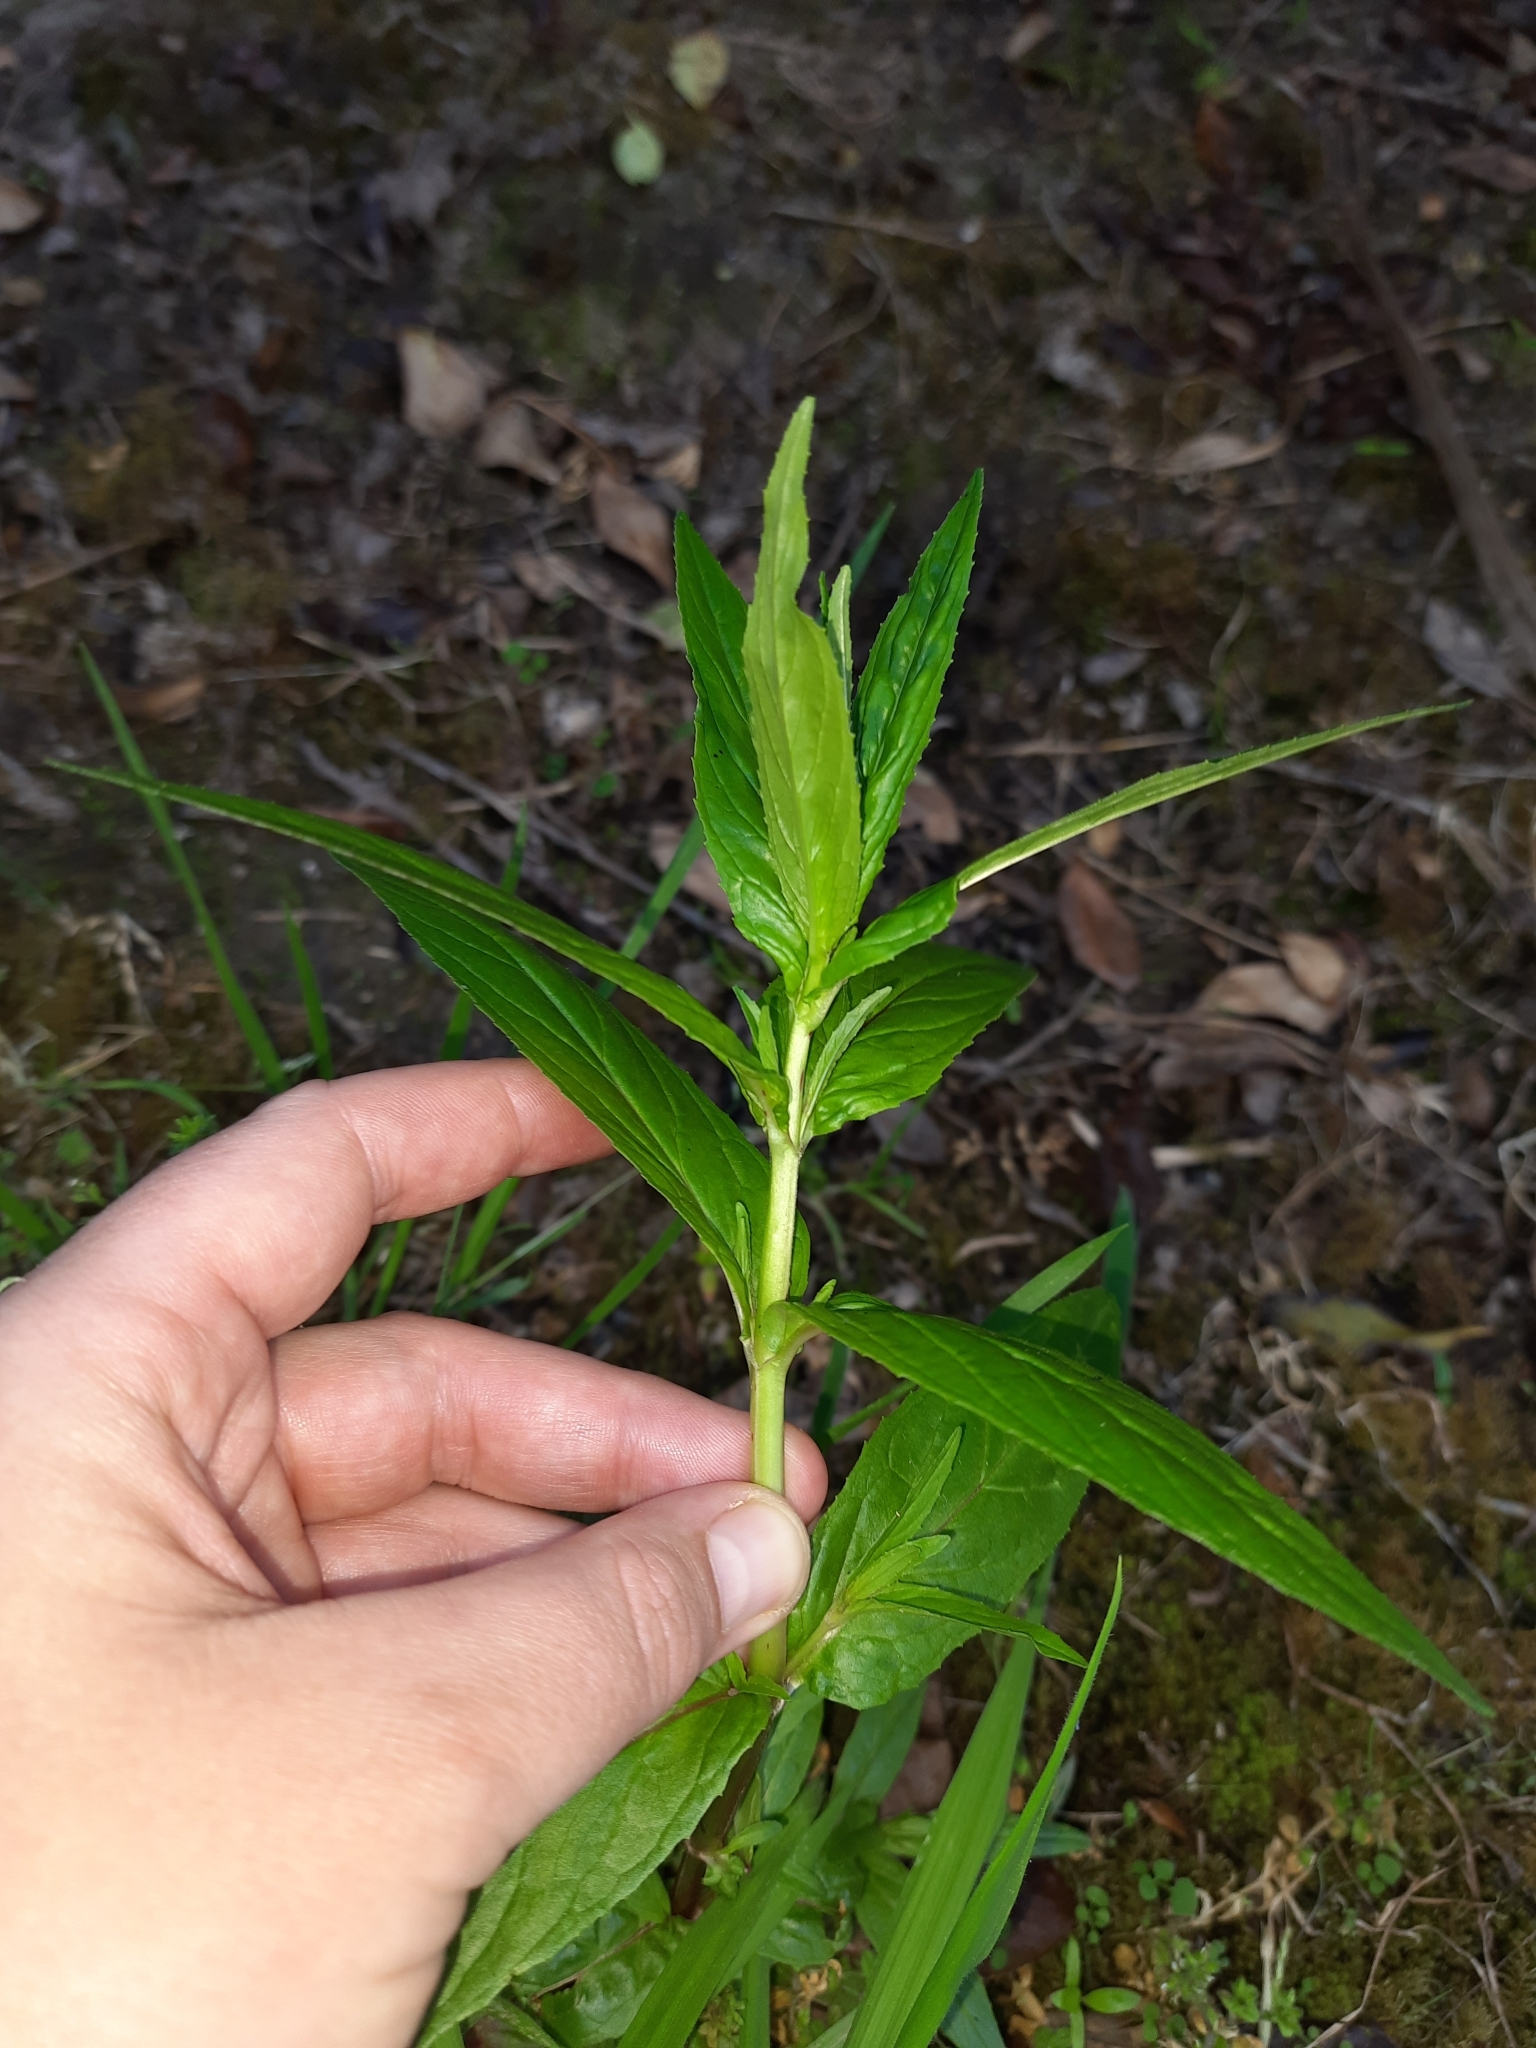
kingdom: Plantae
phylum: Tracheophyta
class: Magnoliopsida
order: Myrtales
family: Onagraceae
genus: Epilobium
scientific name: Epilobium ciliatum
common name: American willowherb
